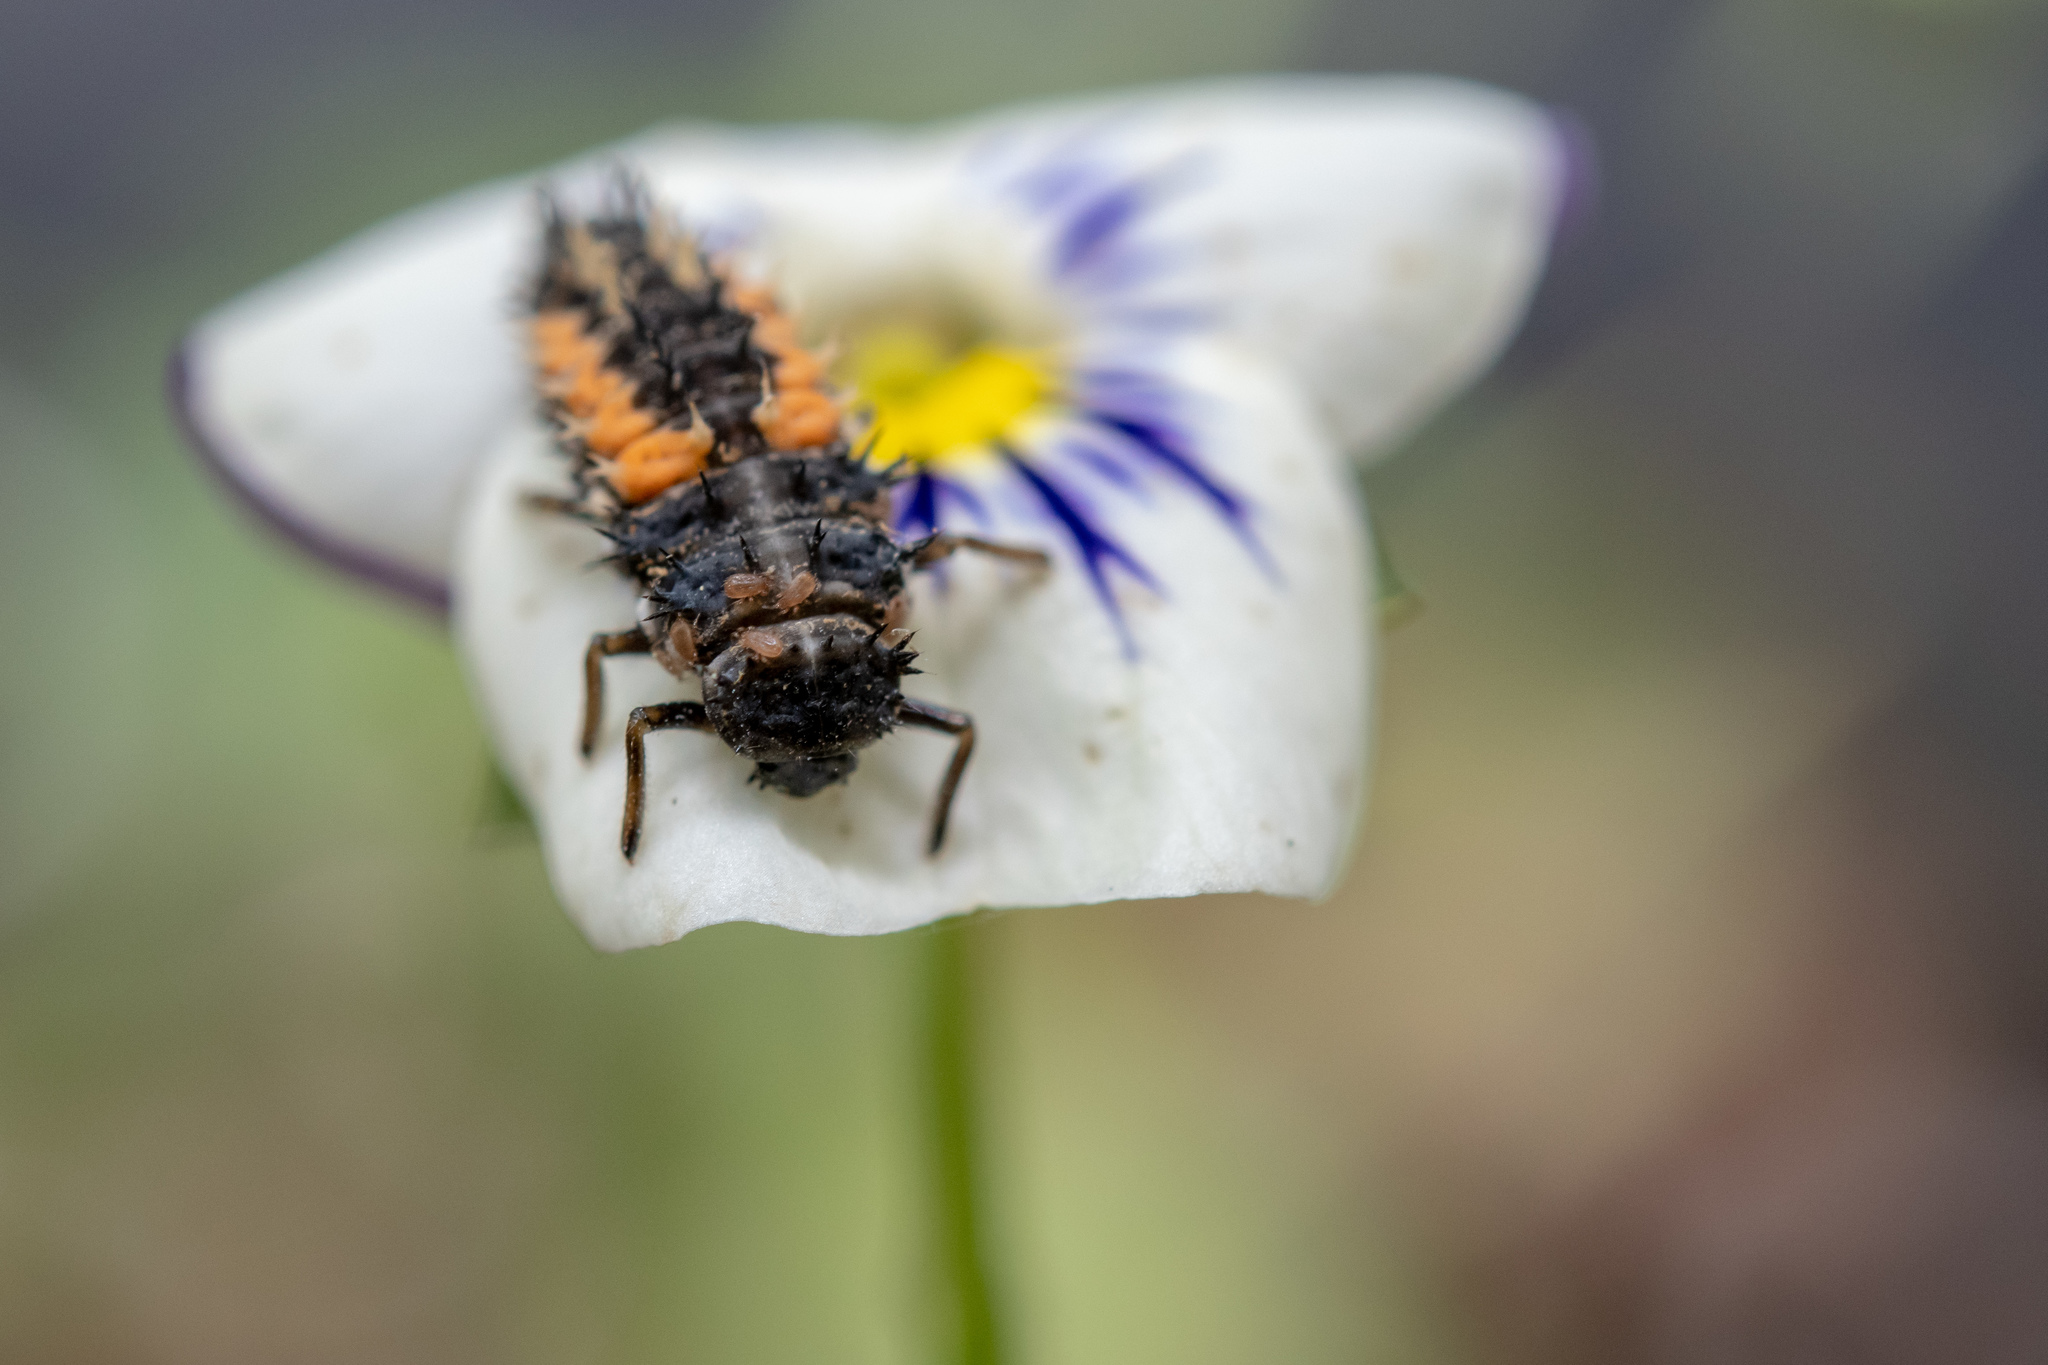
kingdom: Animalia
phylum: Arthropoda
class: Insecta
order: Coleoptera
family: Coccinellidae
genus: Harmonia
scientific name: Harmonia axyridis
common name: Harlequin ladybird
